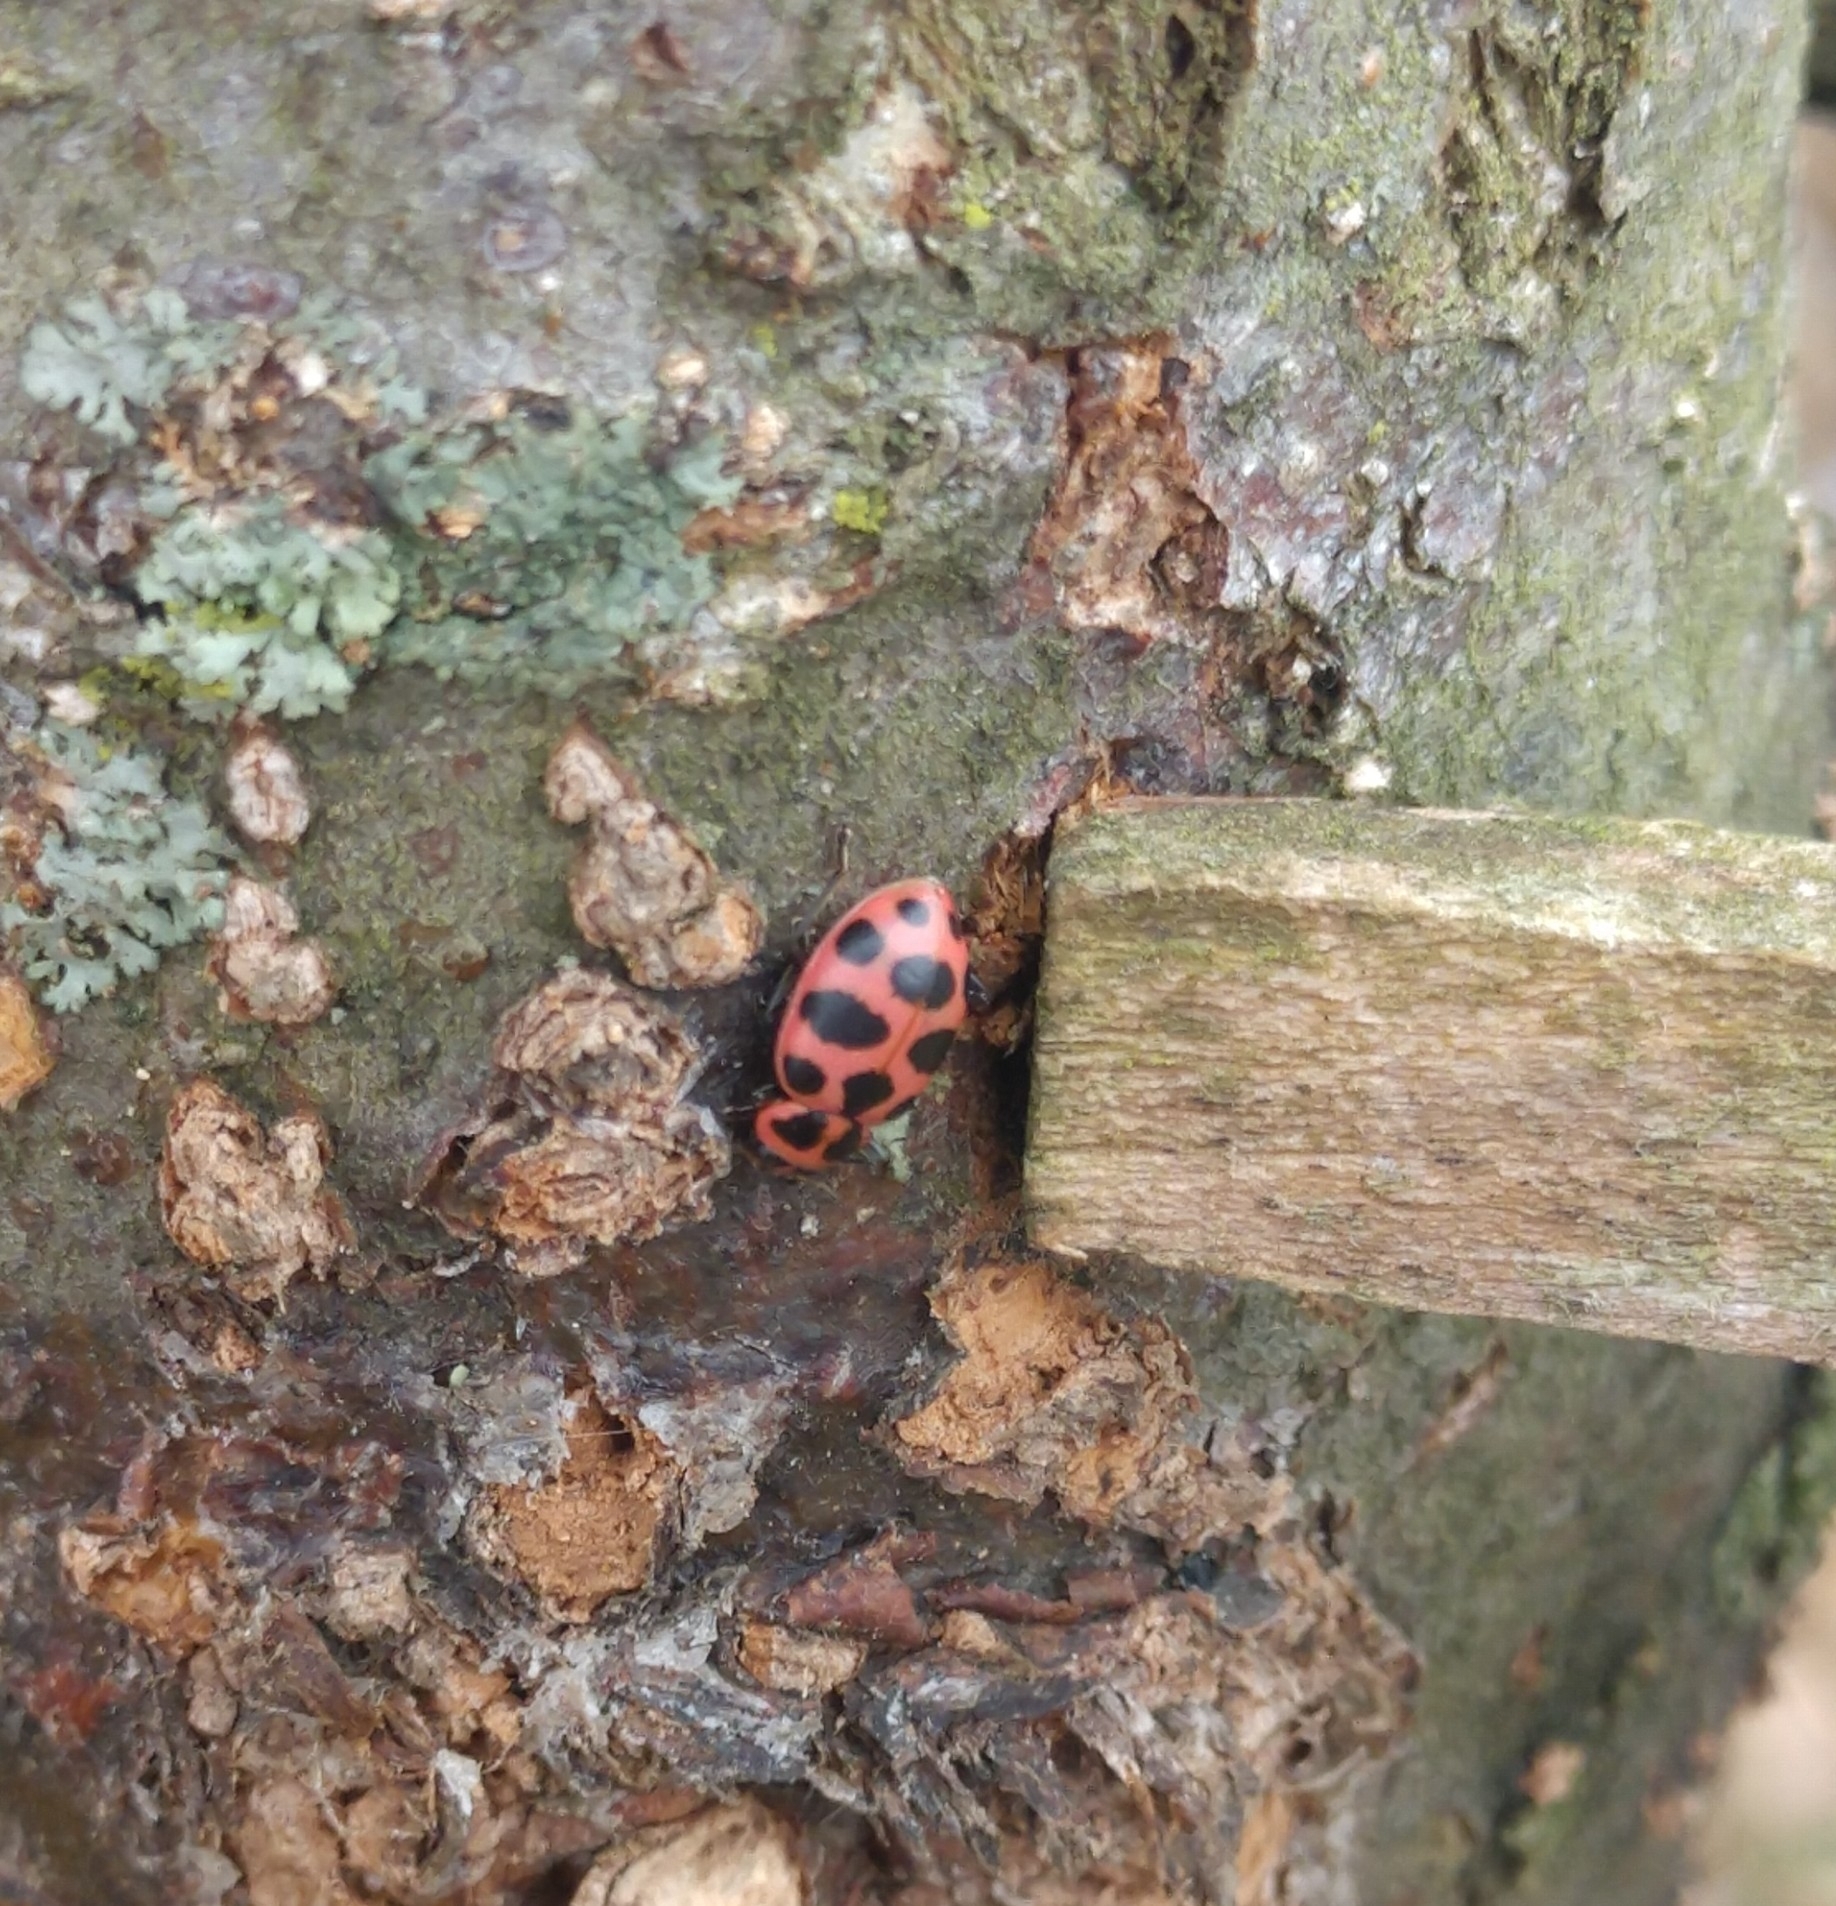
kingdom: Animalia
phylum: Arthropoda
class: Insecta
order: Coleoptera
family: Coccinellidae
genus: Coleomegilla
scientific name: Coleomegilla maculata
